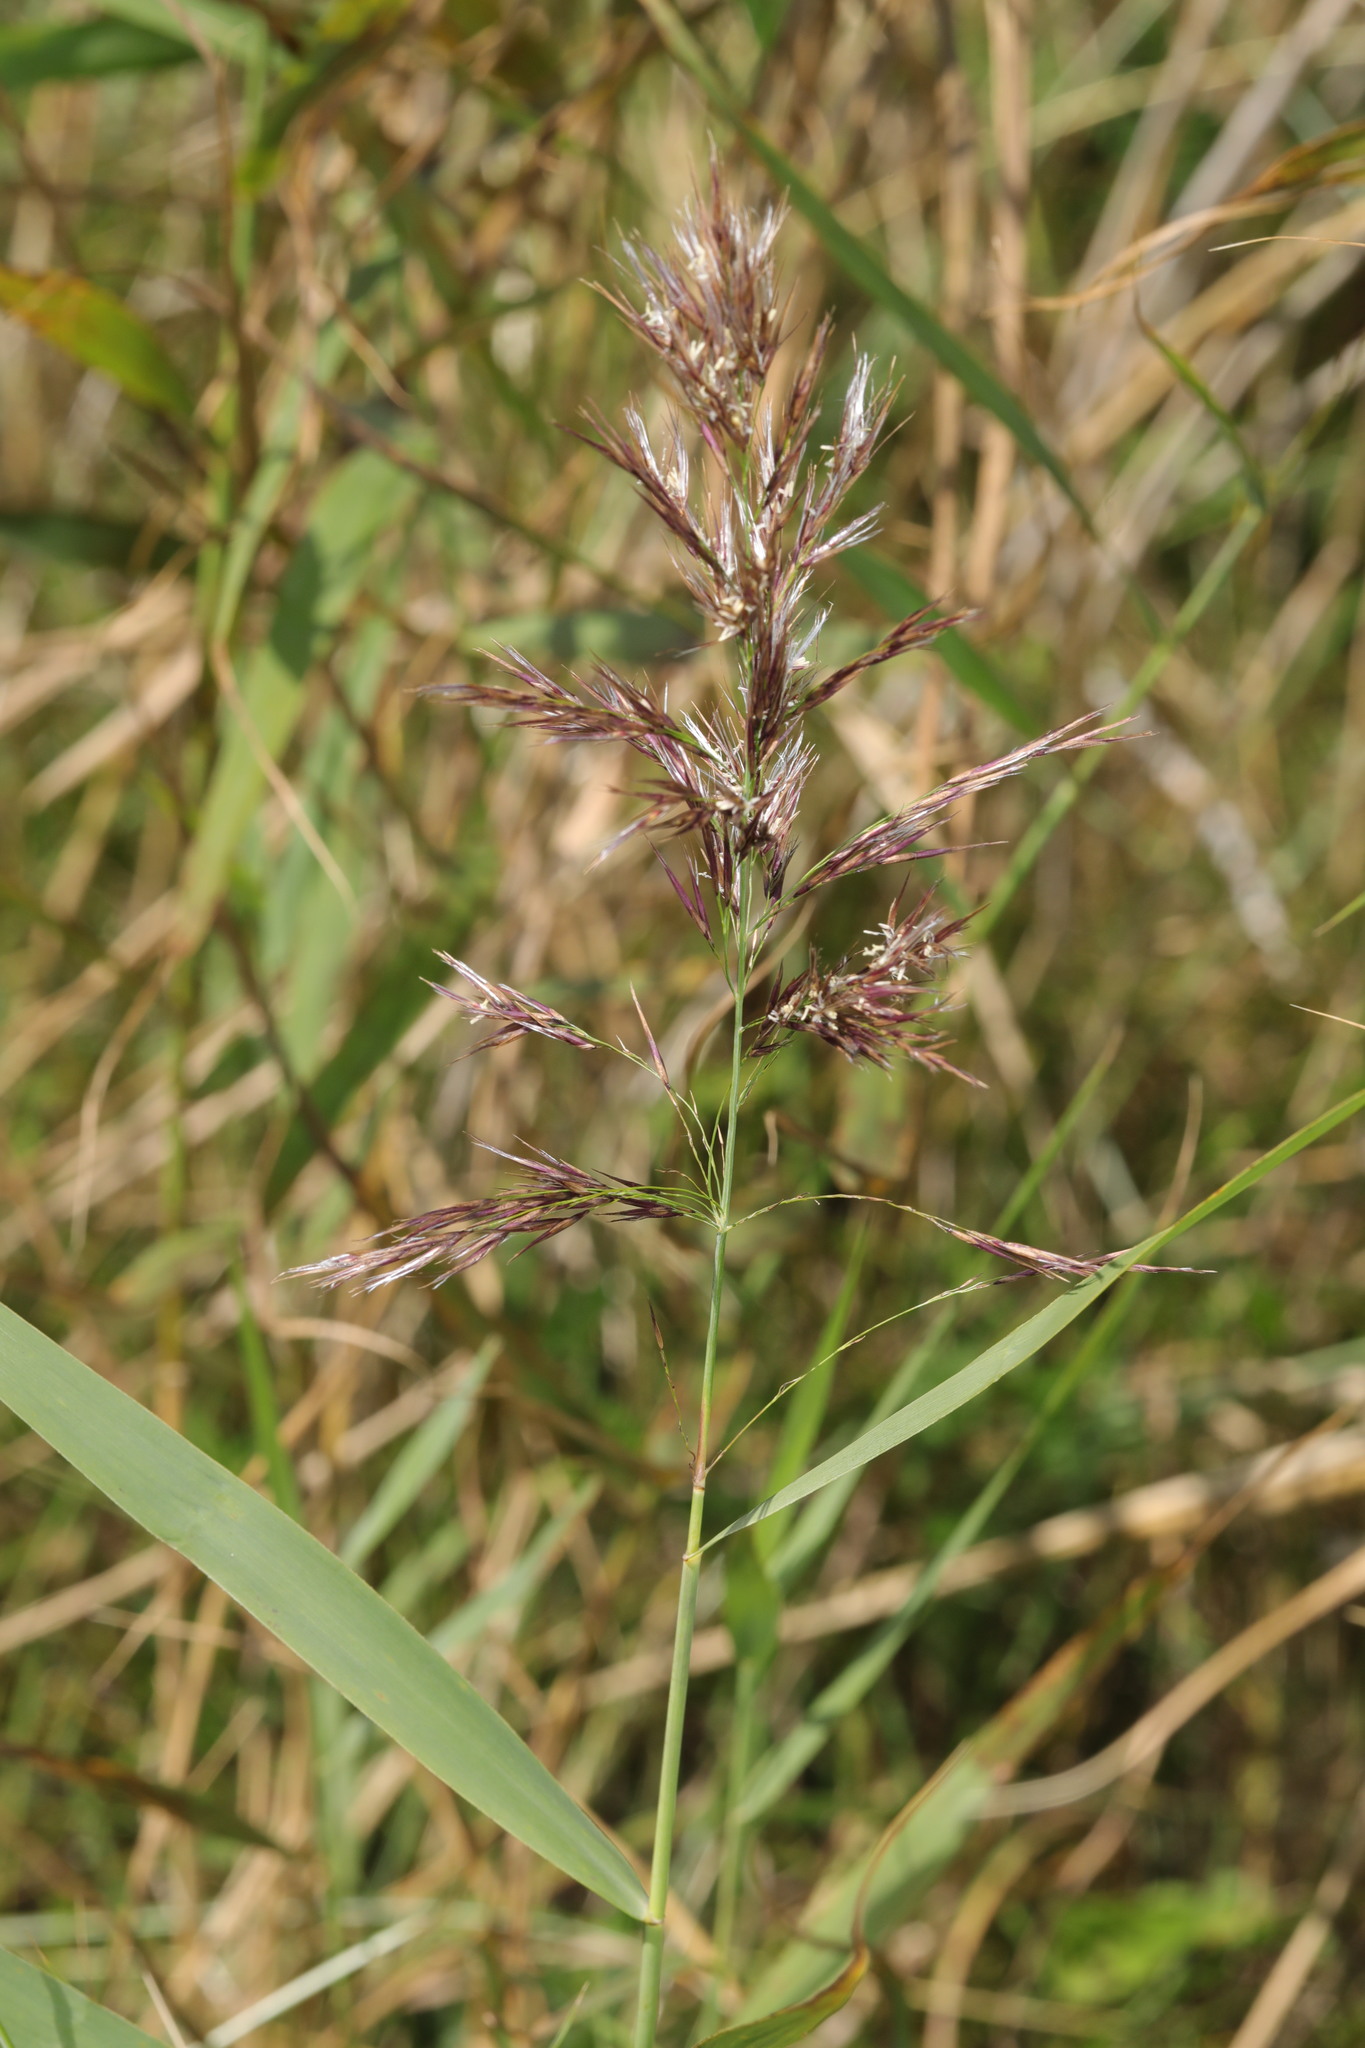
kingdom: Plantae
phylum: Tracheophyta
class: Liliopsida
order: Poales
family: Poaceae
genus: Phragmites
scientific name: Phragmites australis
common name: Common reed
